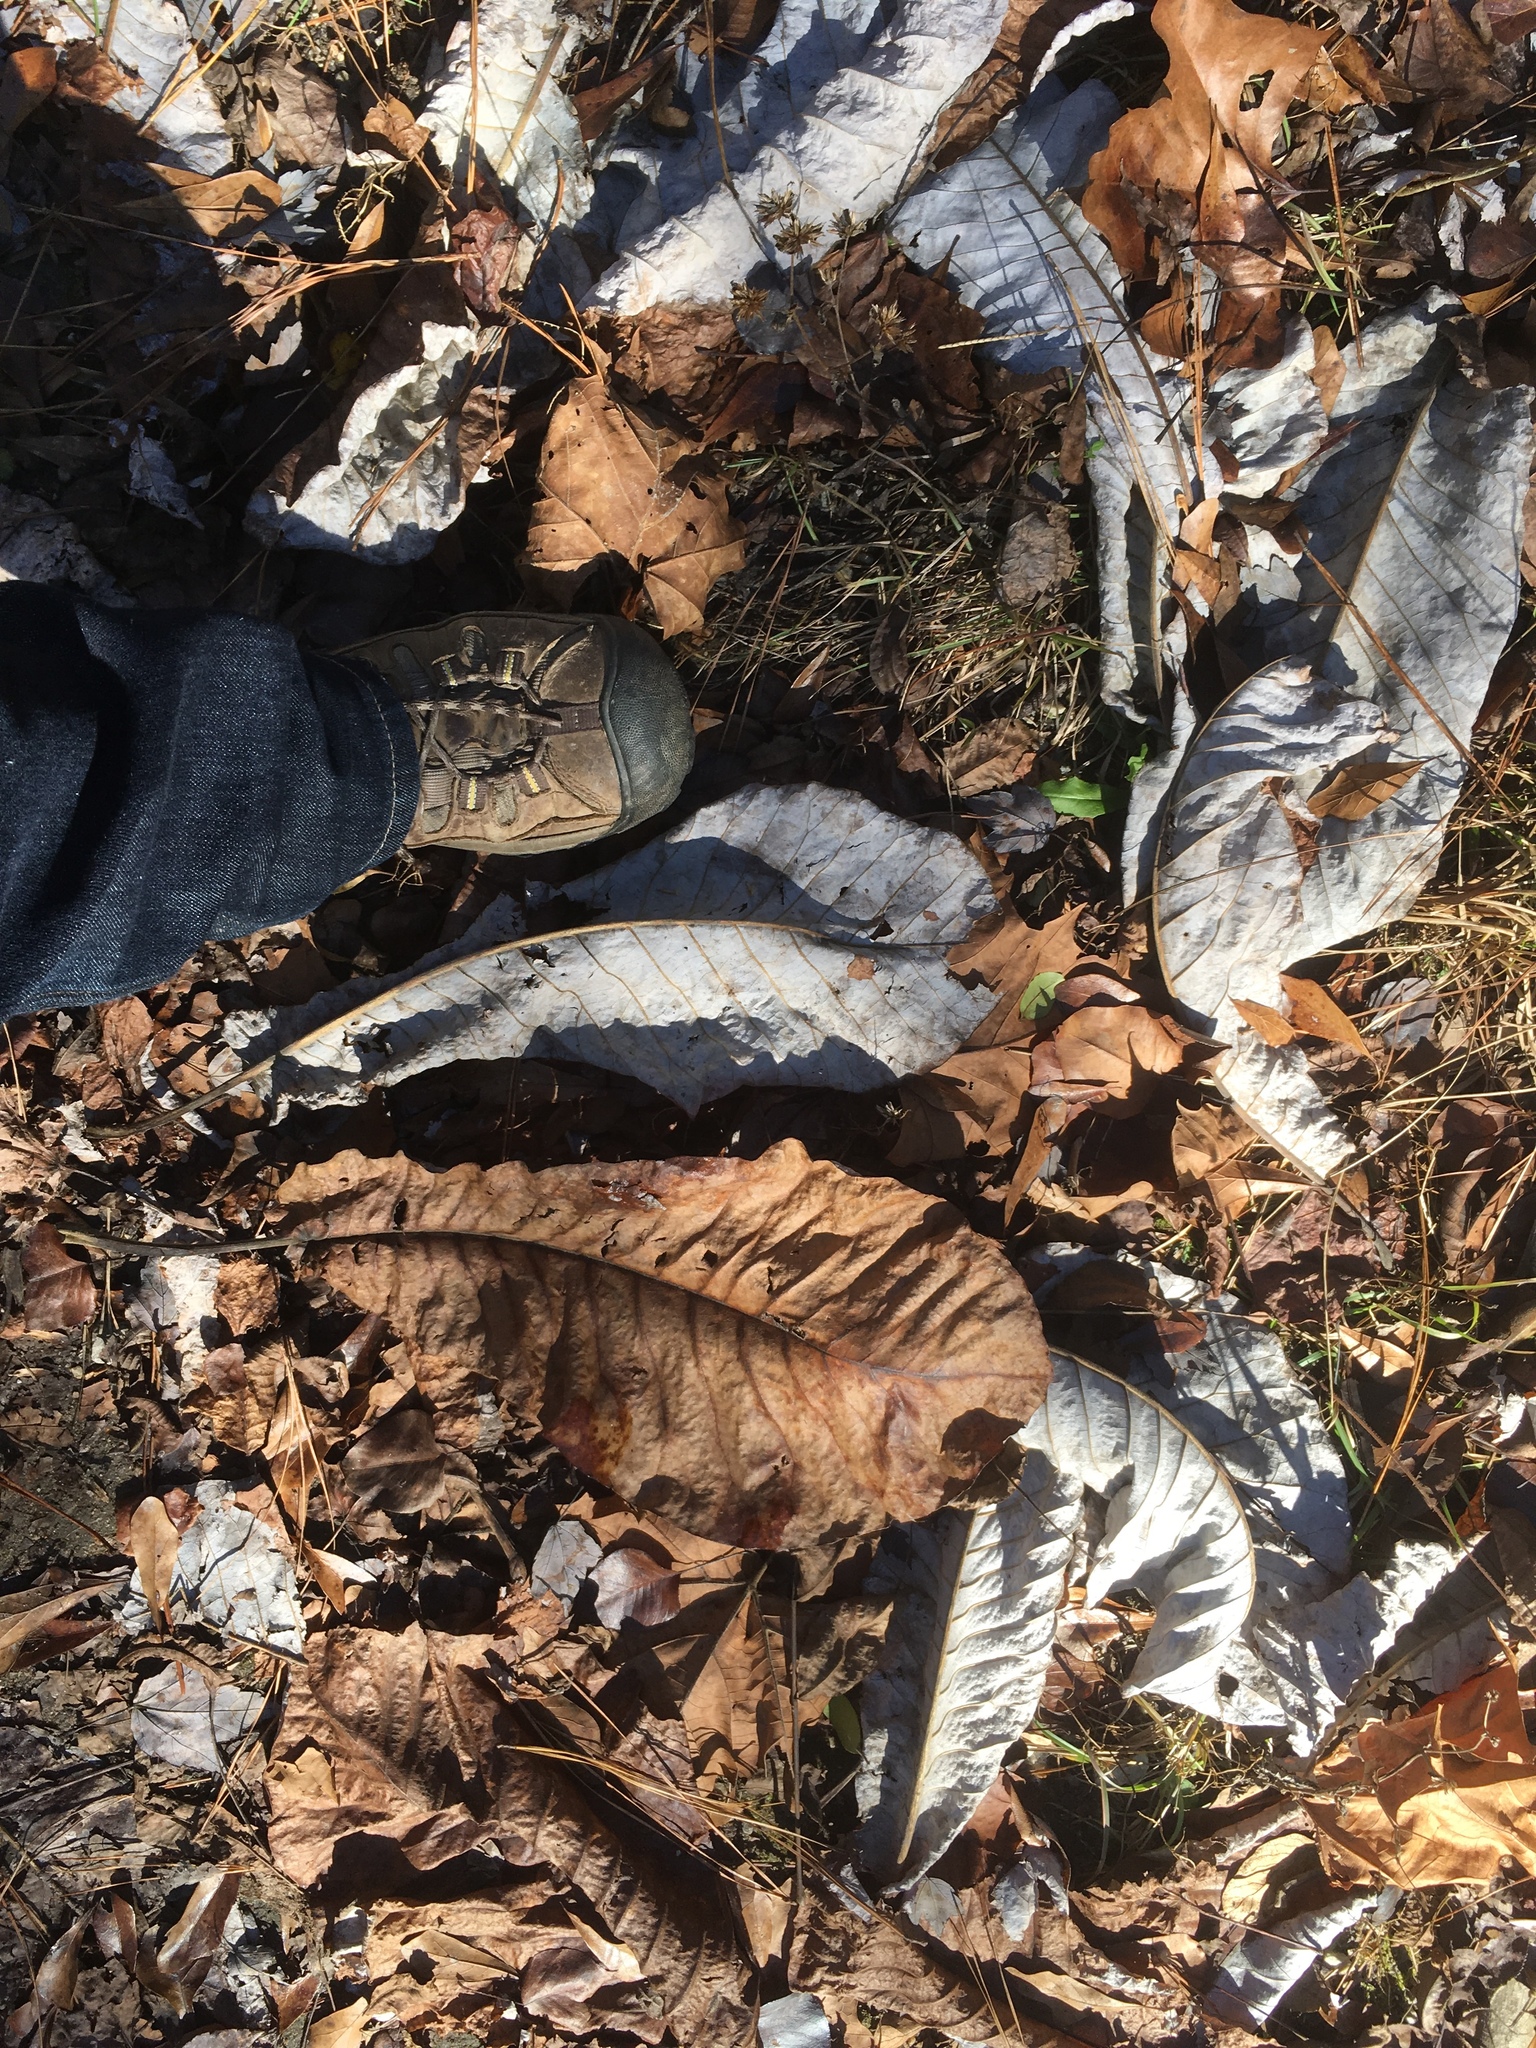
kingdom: Plantae
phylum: Tracheophyta
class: Magnoliopsida
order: Magnoliales
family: Magnoliaceae
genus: Magnolia
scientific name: Magnolia macrophylla
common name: Big-leaf magnolia
